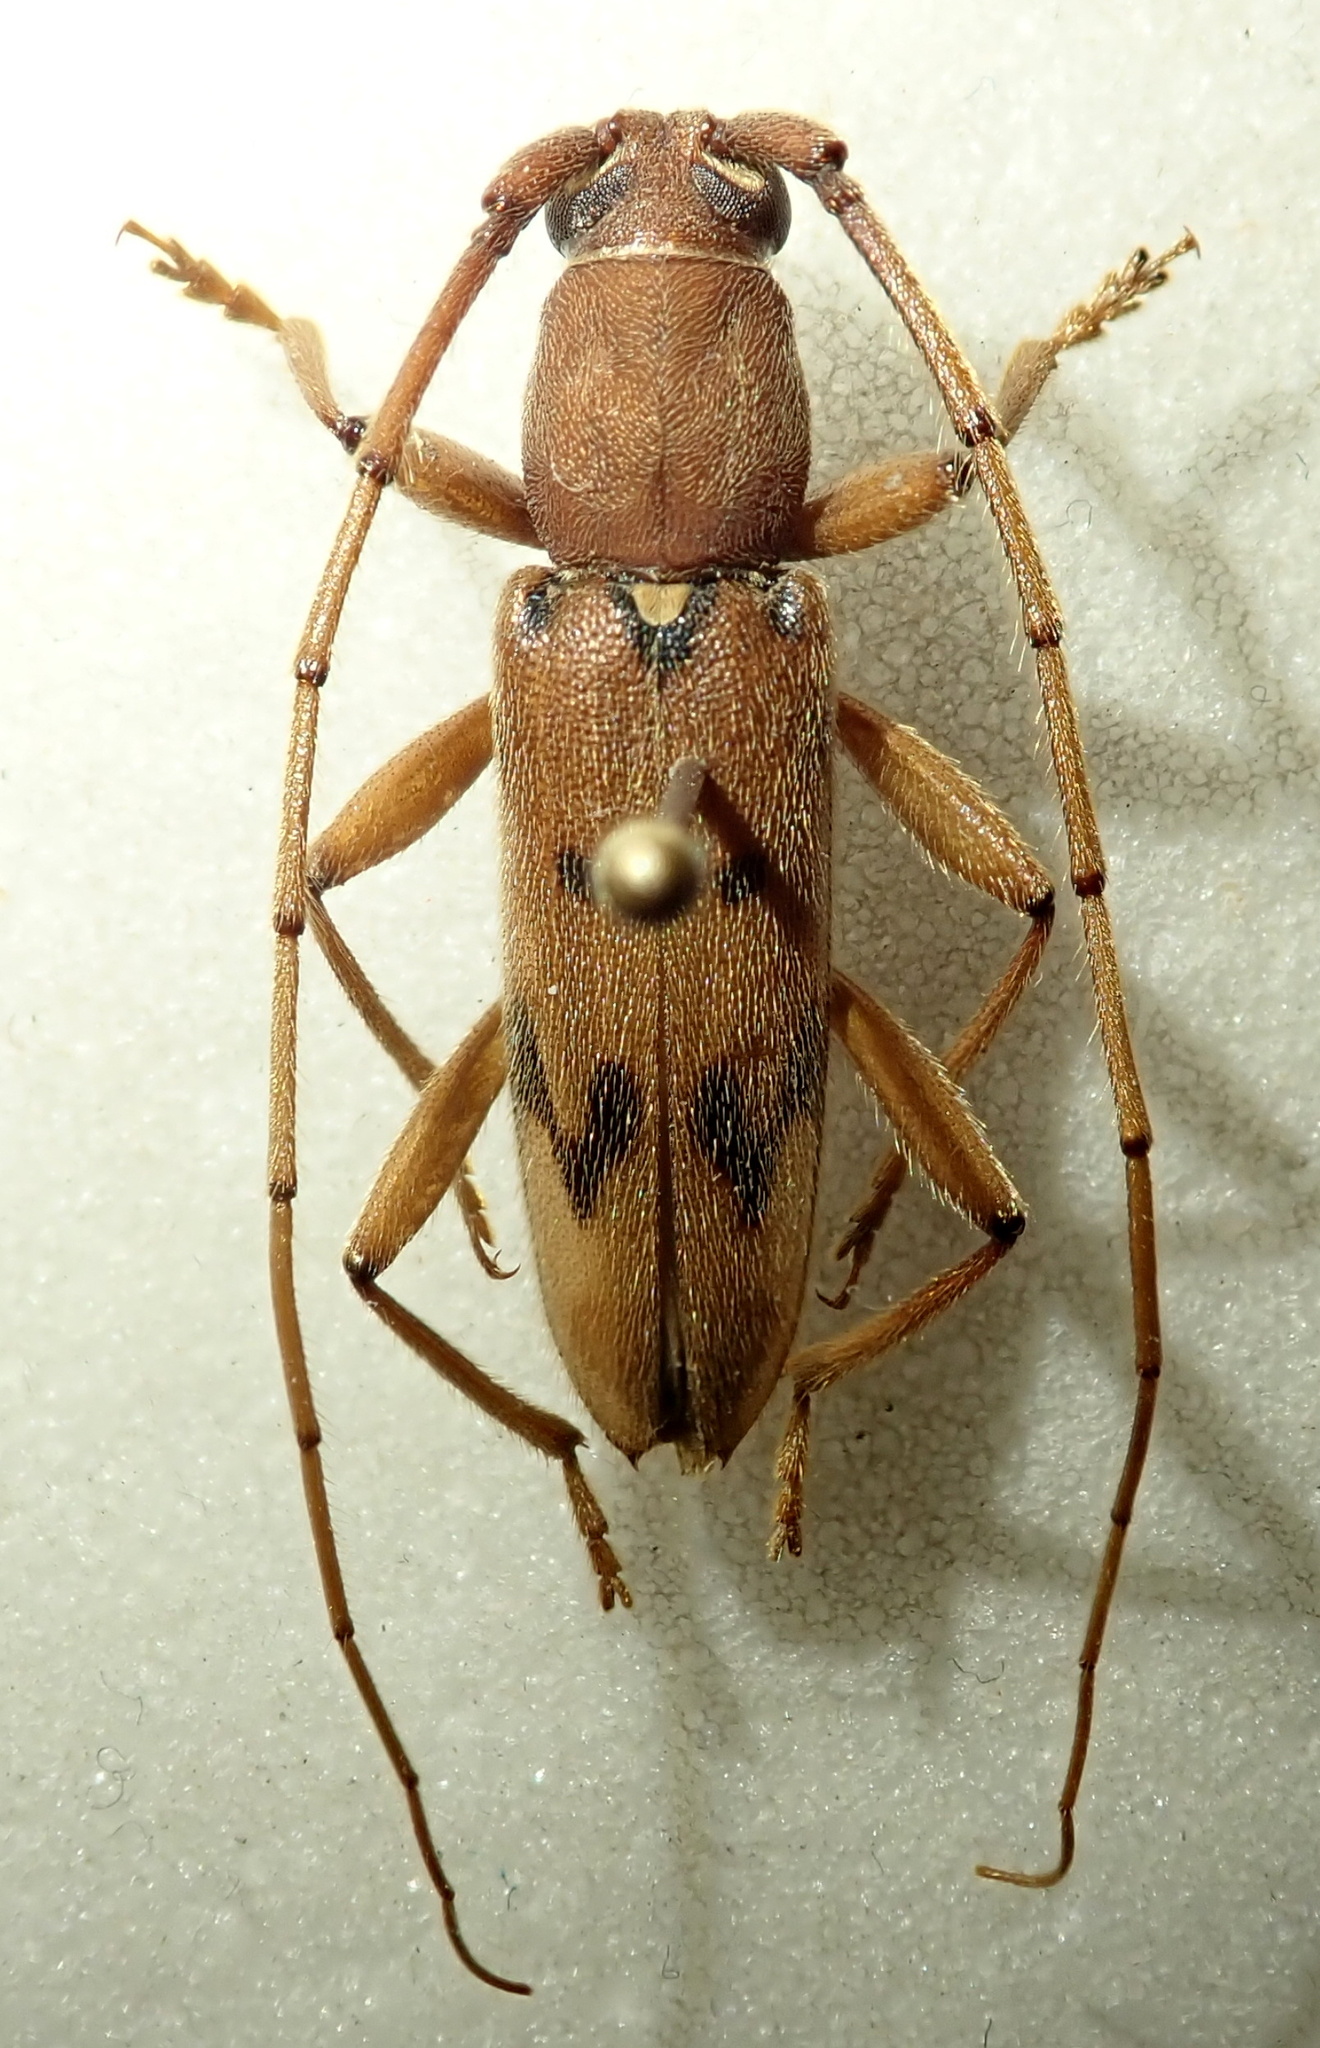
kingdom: Animalia
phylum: Arthropoda
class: Insecta
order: Coleoptera
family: Cerambycidae
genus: Achryson
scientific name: Achryson surinamum
